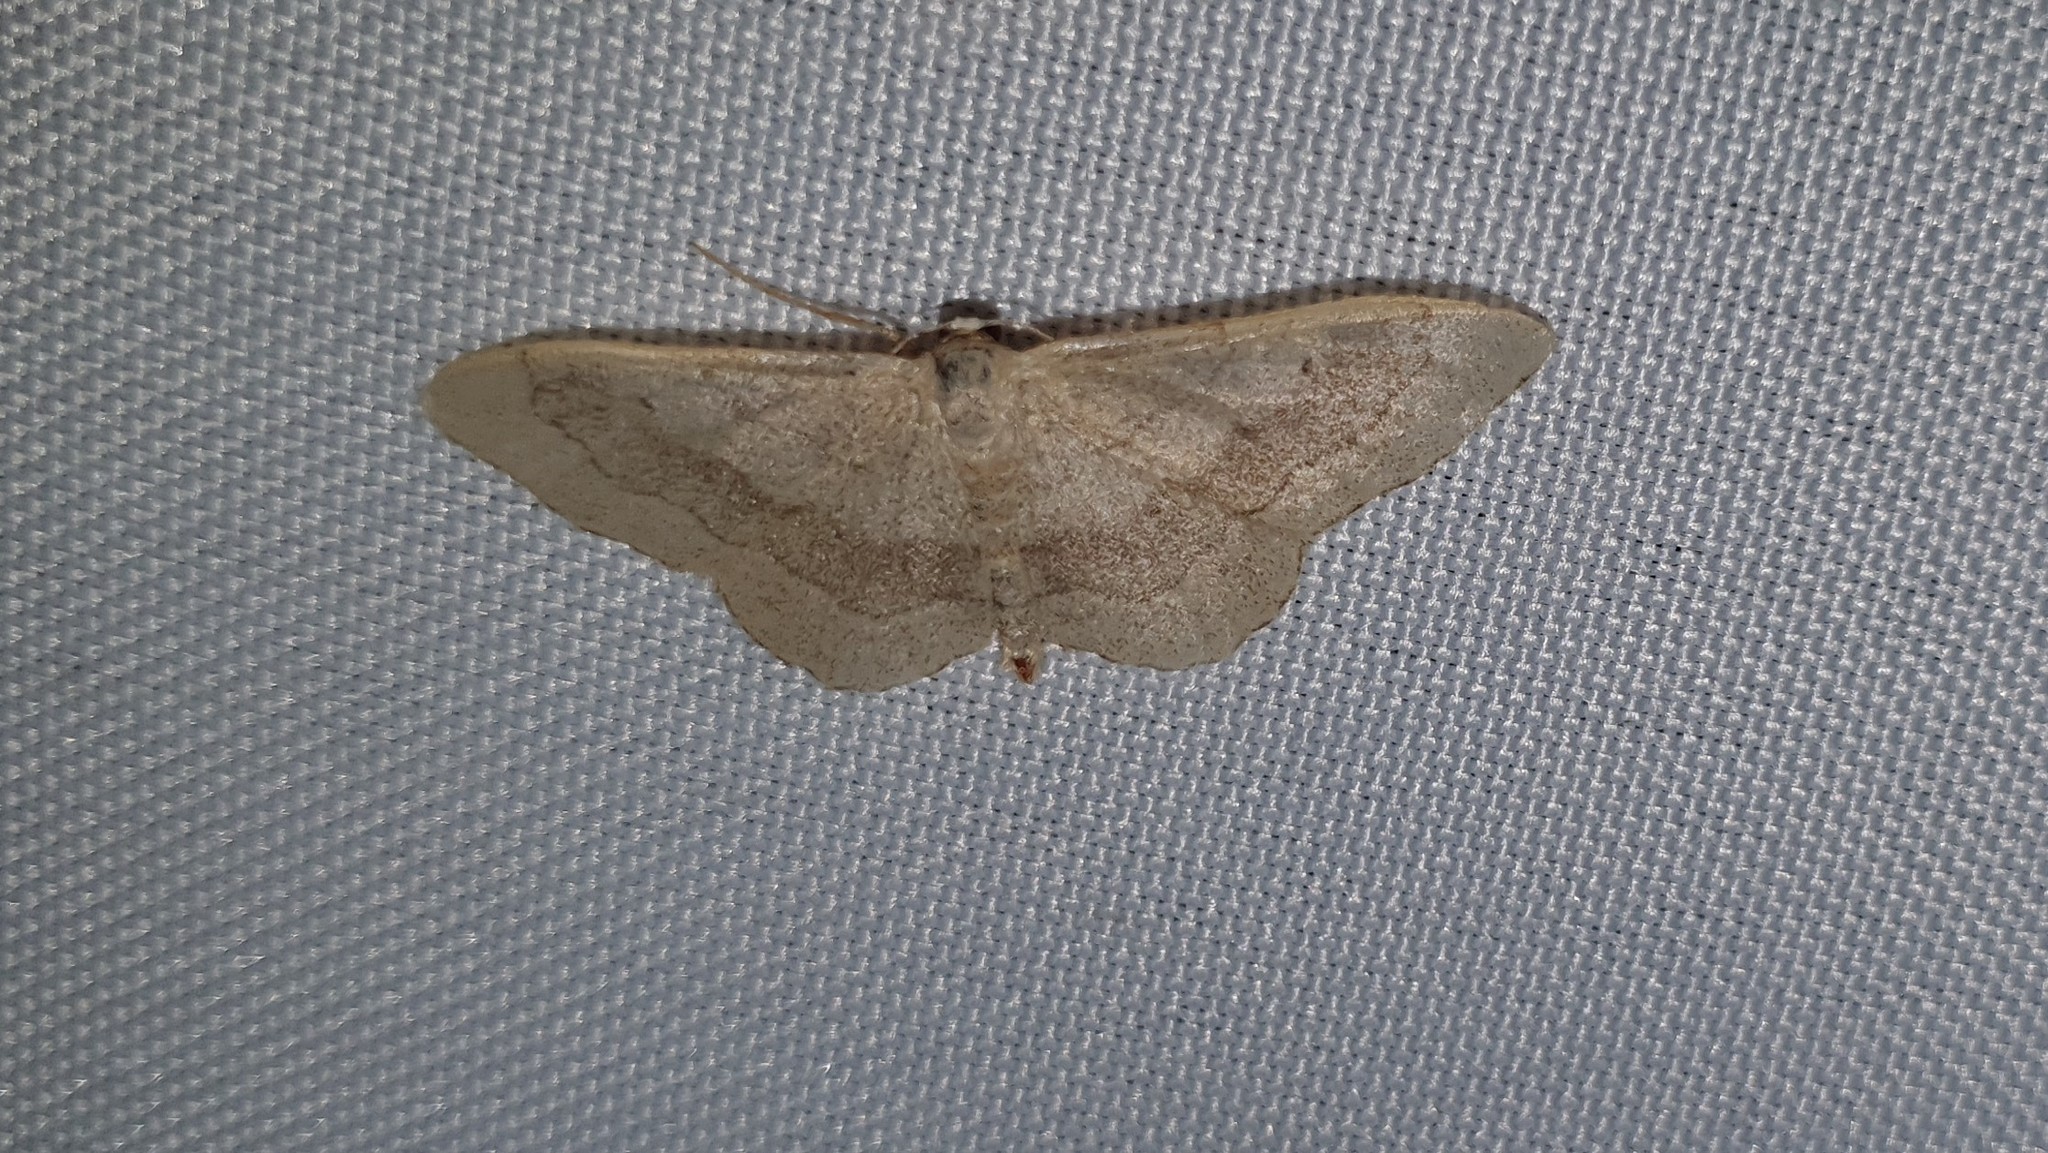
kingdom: Animalia
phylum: Arthropoda
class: Insecta
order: Lepidoptera
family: Geometridae
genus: Idaea
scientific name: Idaea aversata
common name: Riband wave
